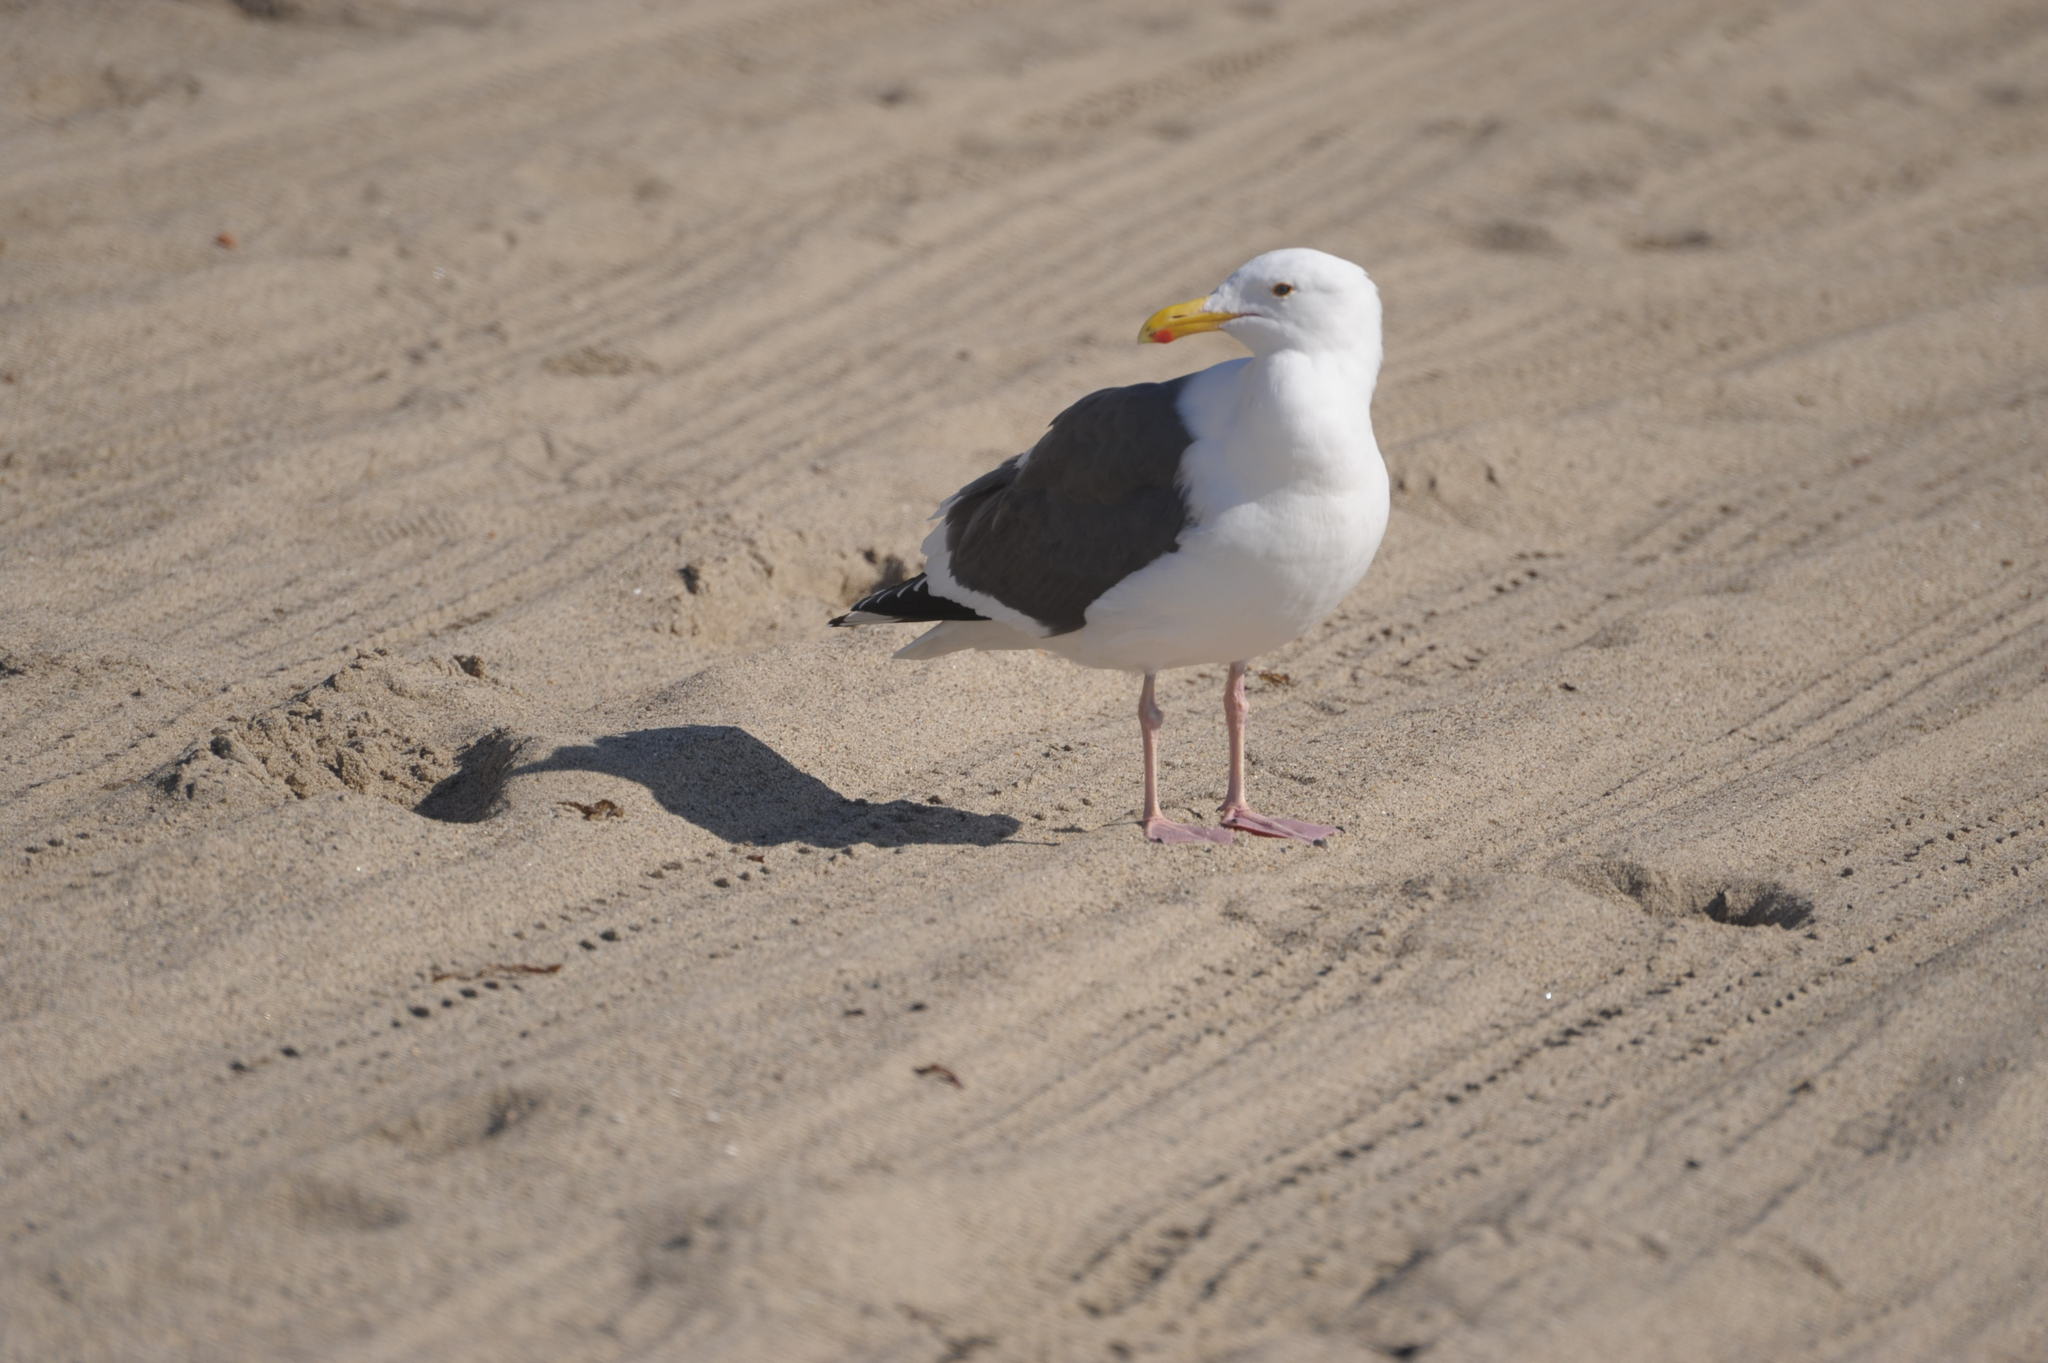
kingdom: Animalia
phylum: Chordata
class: Aves
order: Charadriiformes
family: Laridae
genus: Larus
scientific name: Larus occidentalis
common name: Western gull
